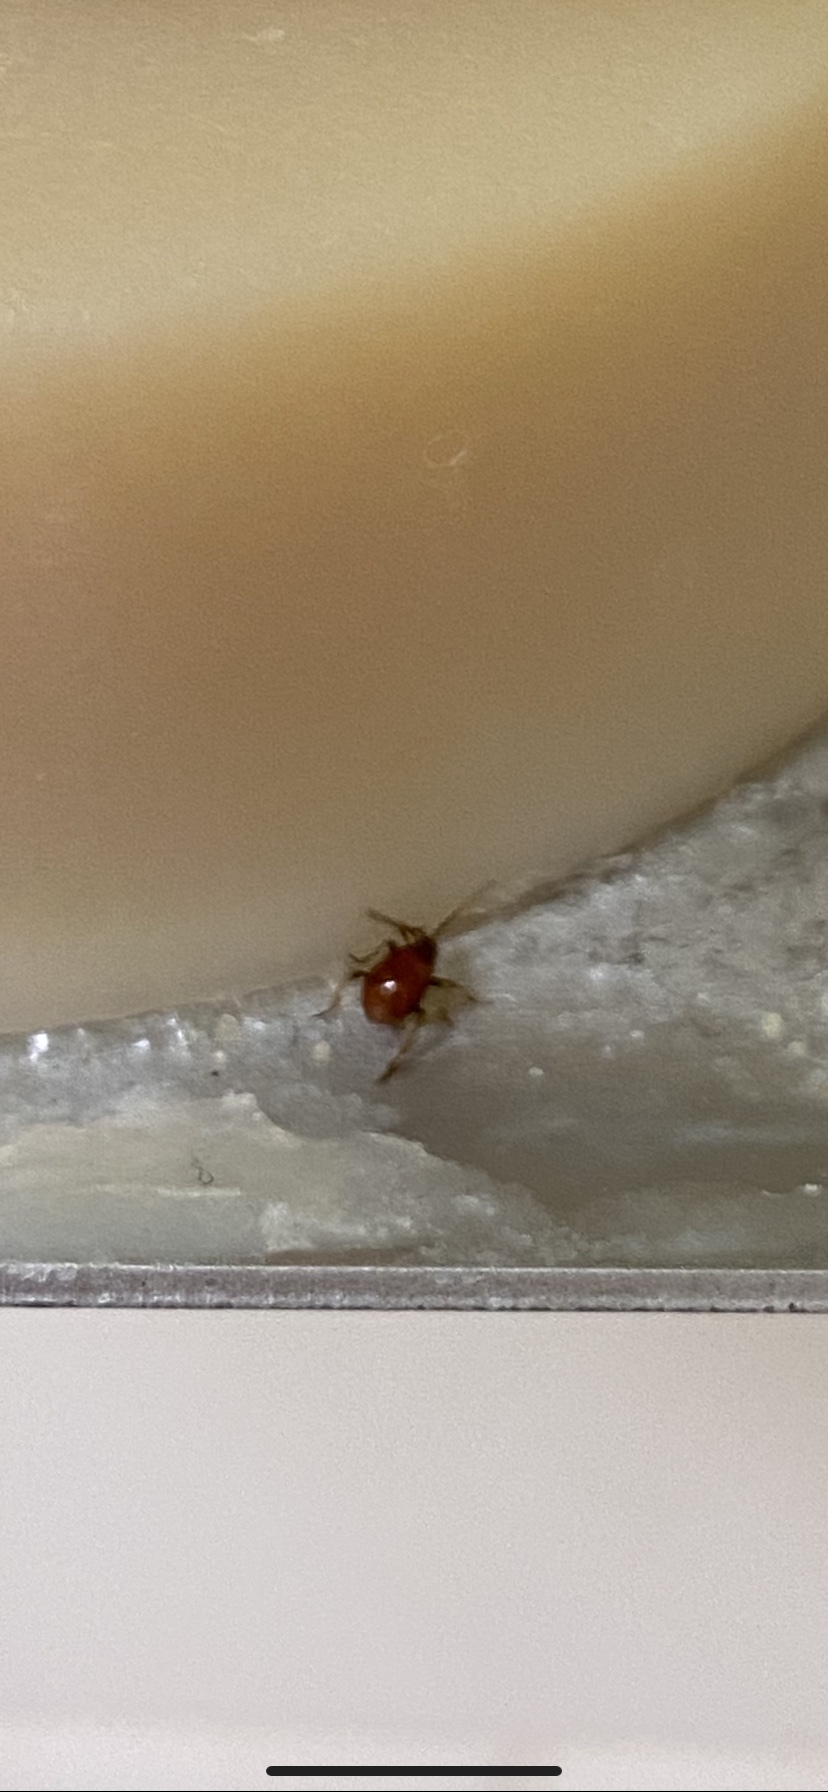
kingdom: Animalia
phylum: Arthropoda
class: Insecta
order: Coleoptera
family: Ptinidae
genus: Gibbium
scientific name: Gibbium aequinoctiale
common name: Smooth spider beetle
